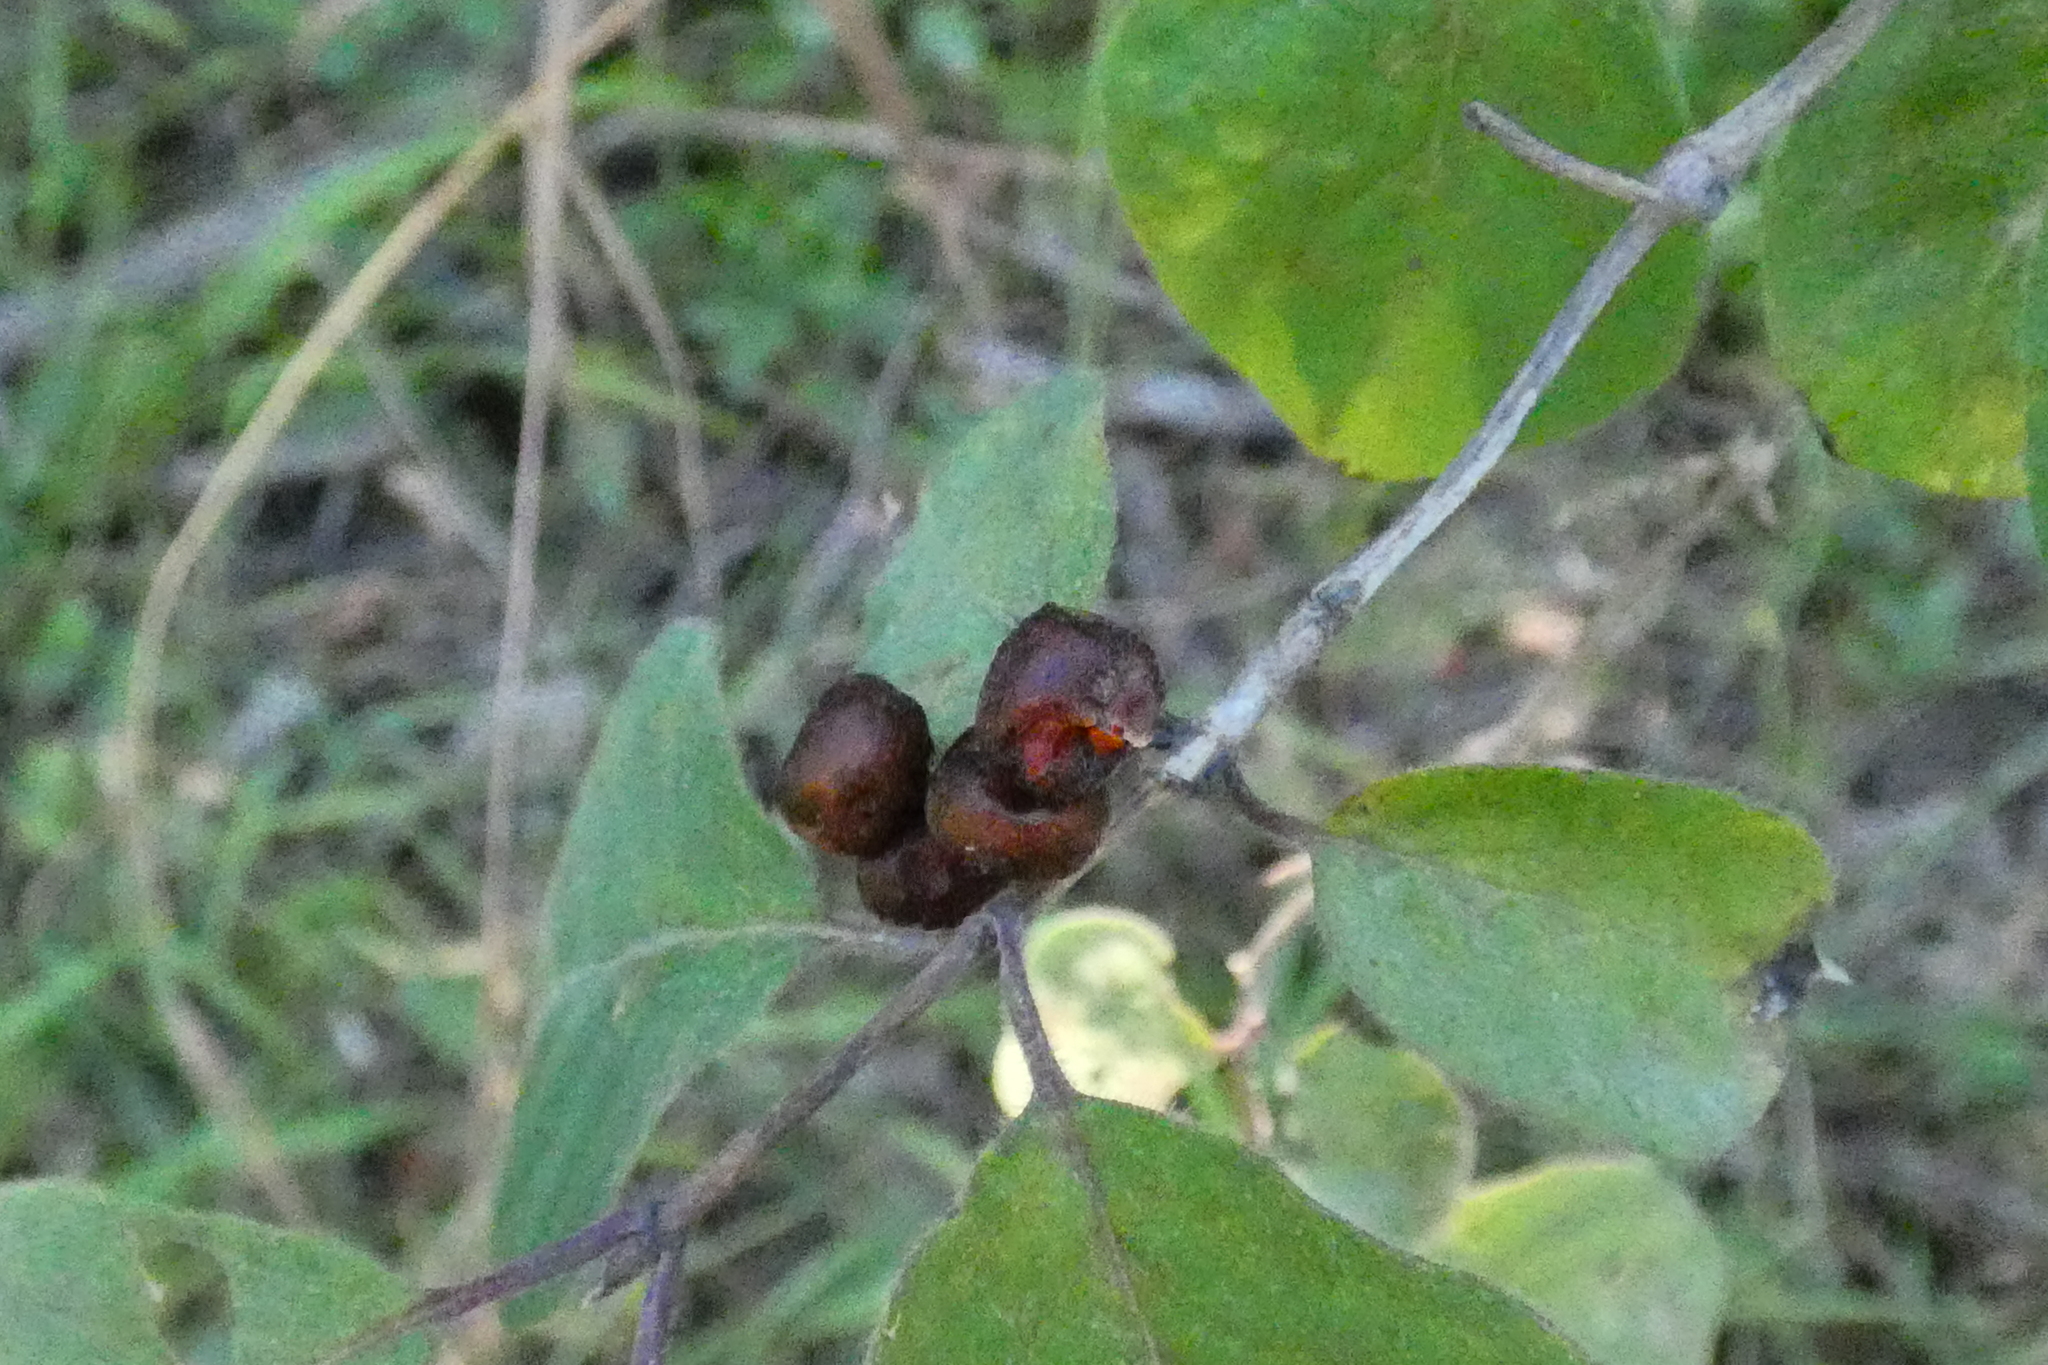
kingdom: Plantae
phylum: Tracheophyta
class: Magnoliopsida
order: Dipsacales
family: Caprifoliaceae
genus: Lonicera
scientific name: Lonicera xylosteum
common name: Fly honeysuckle
